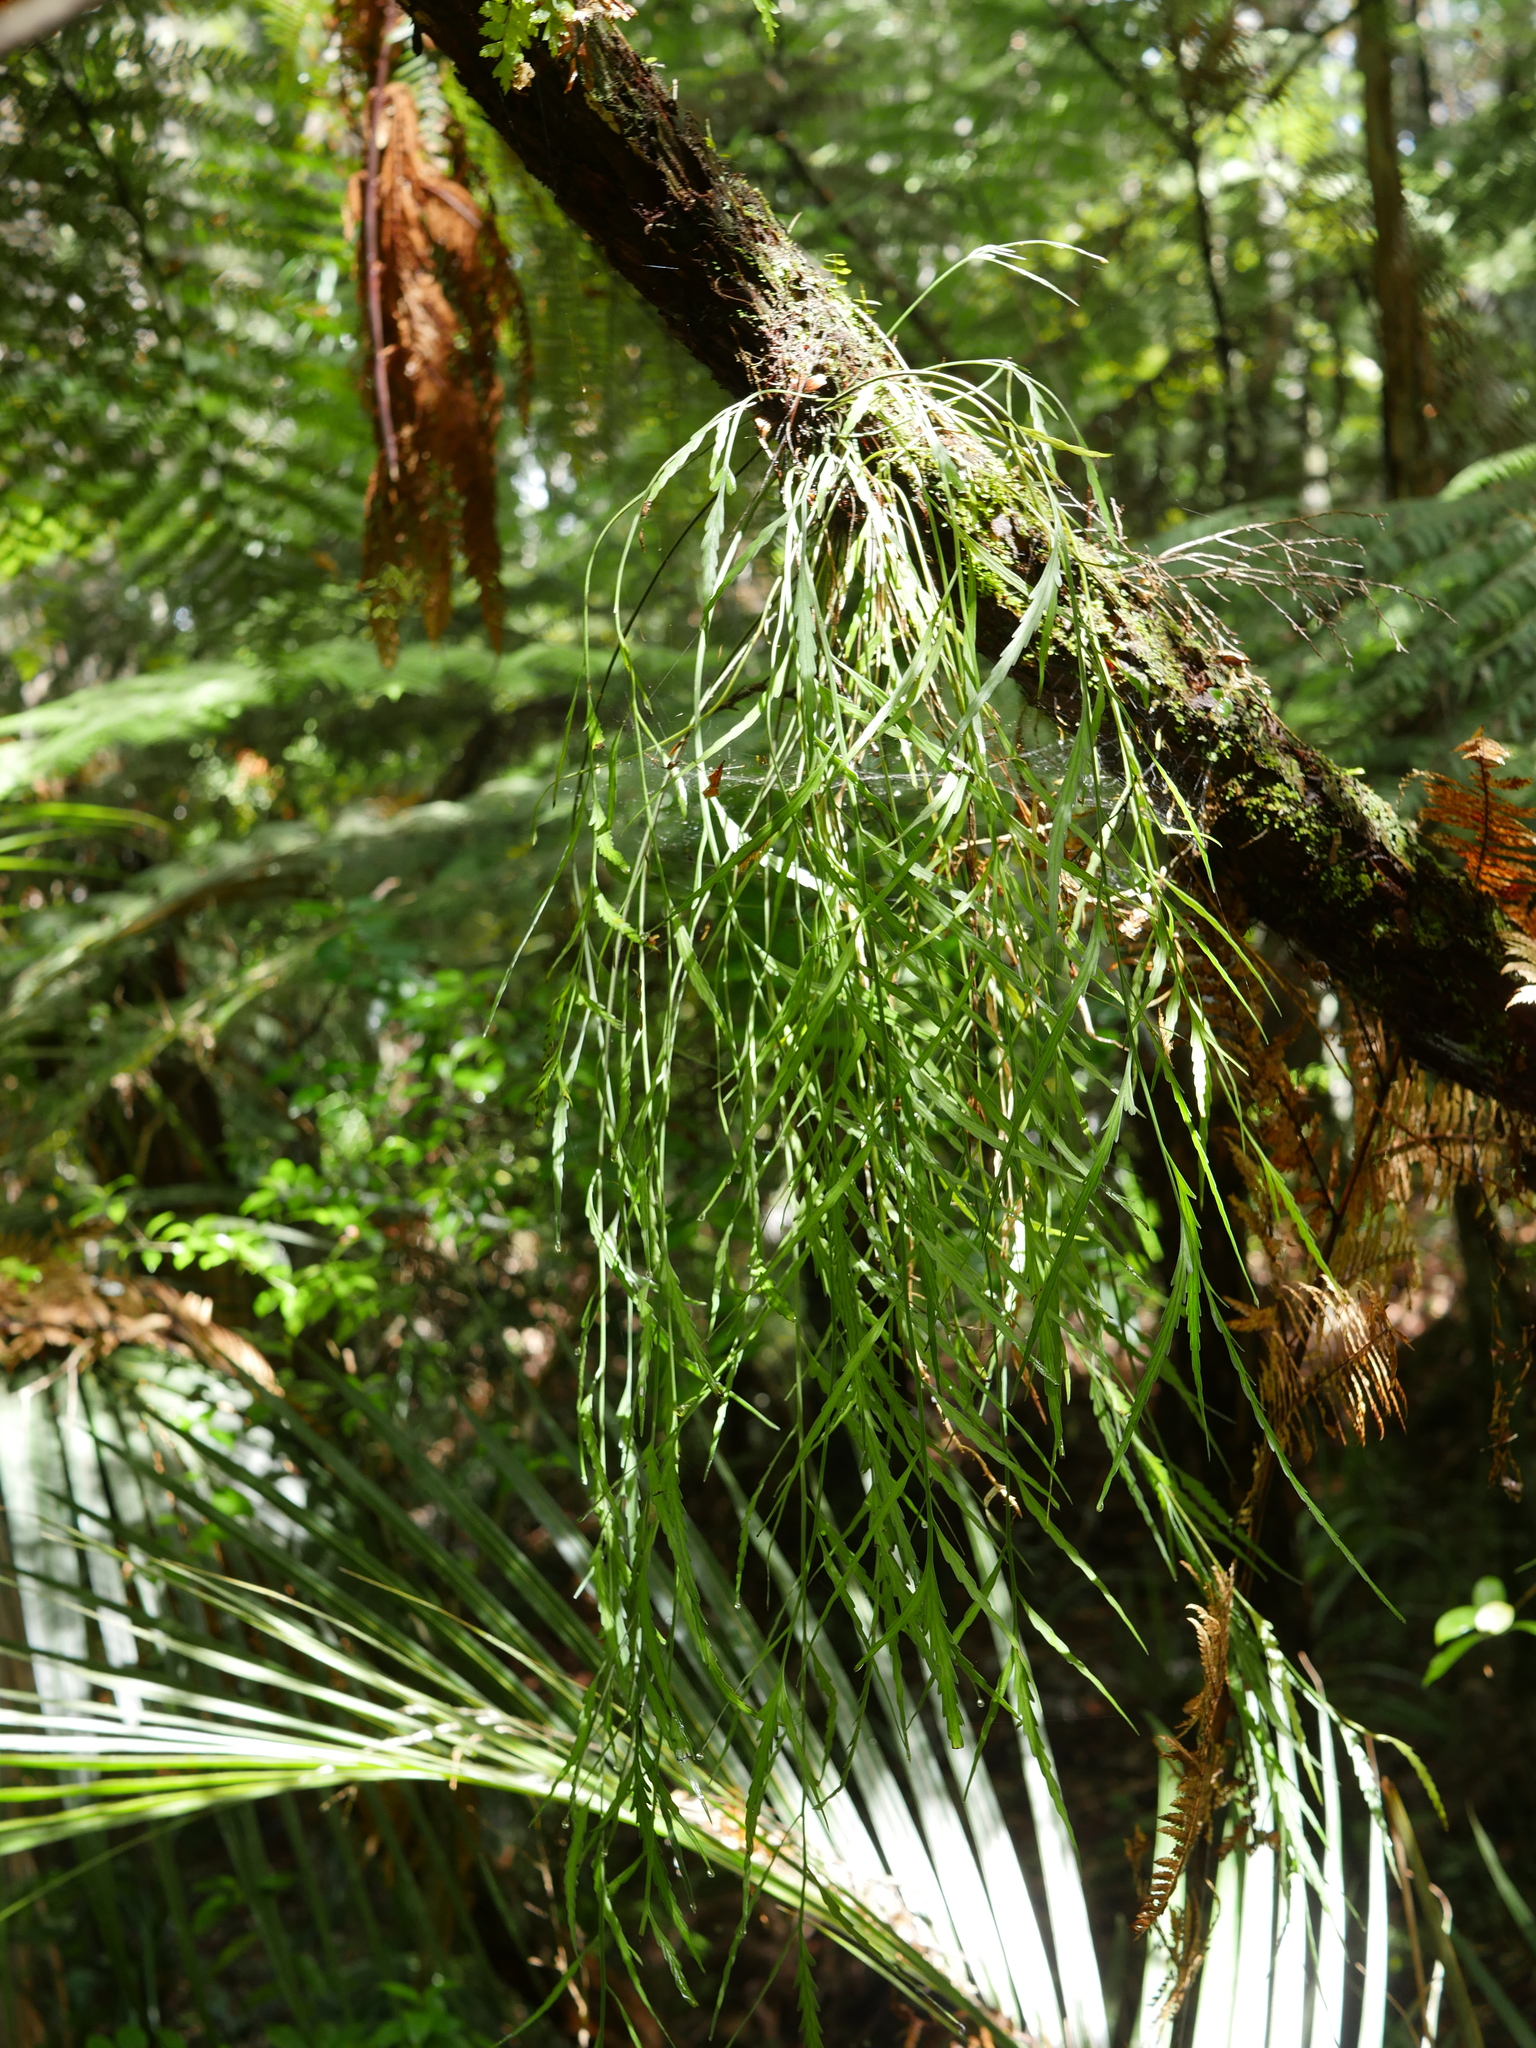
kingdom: Plantae
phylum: Tracheophyta
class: Polypodiopsida
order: Polypodiales
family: Aspleniaceae
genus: Asplenium
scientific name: Asplenium flaccidum
